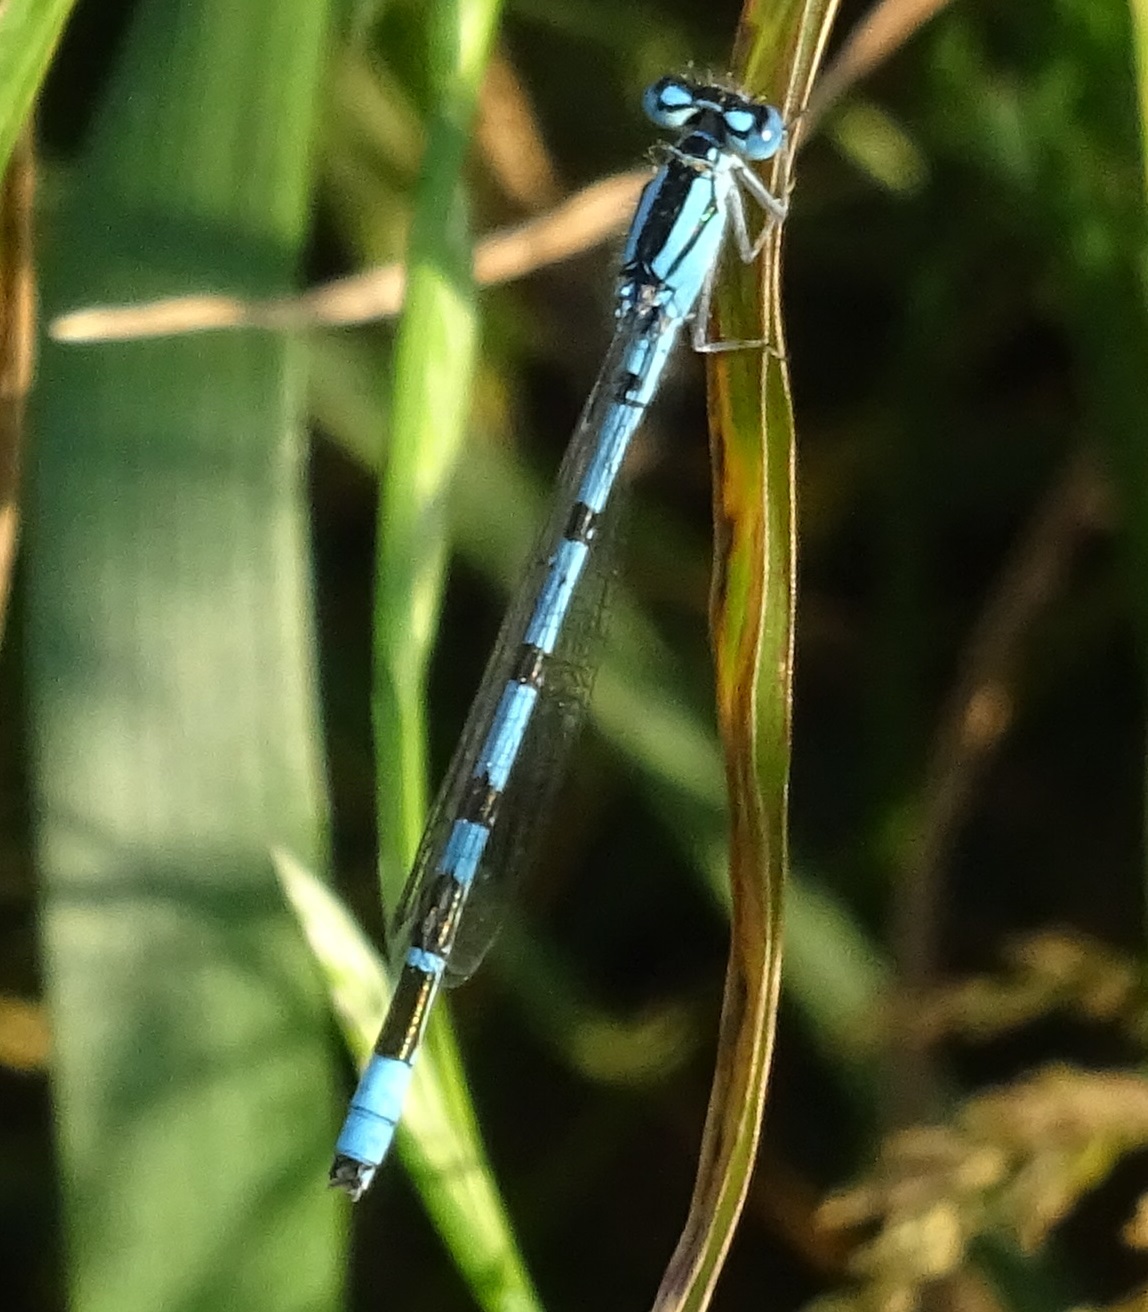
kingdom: Animalia
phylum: Arthropoda
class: Insecta
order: Odonata
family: Coenagrionidae
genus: Enallagma
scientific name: Enallagma cyathigerum
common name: Common blue damselfly
